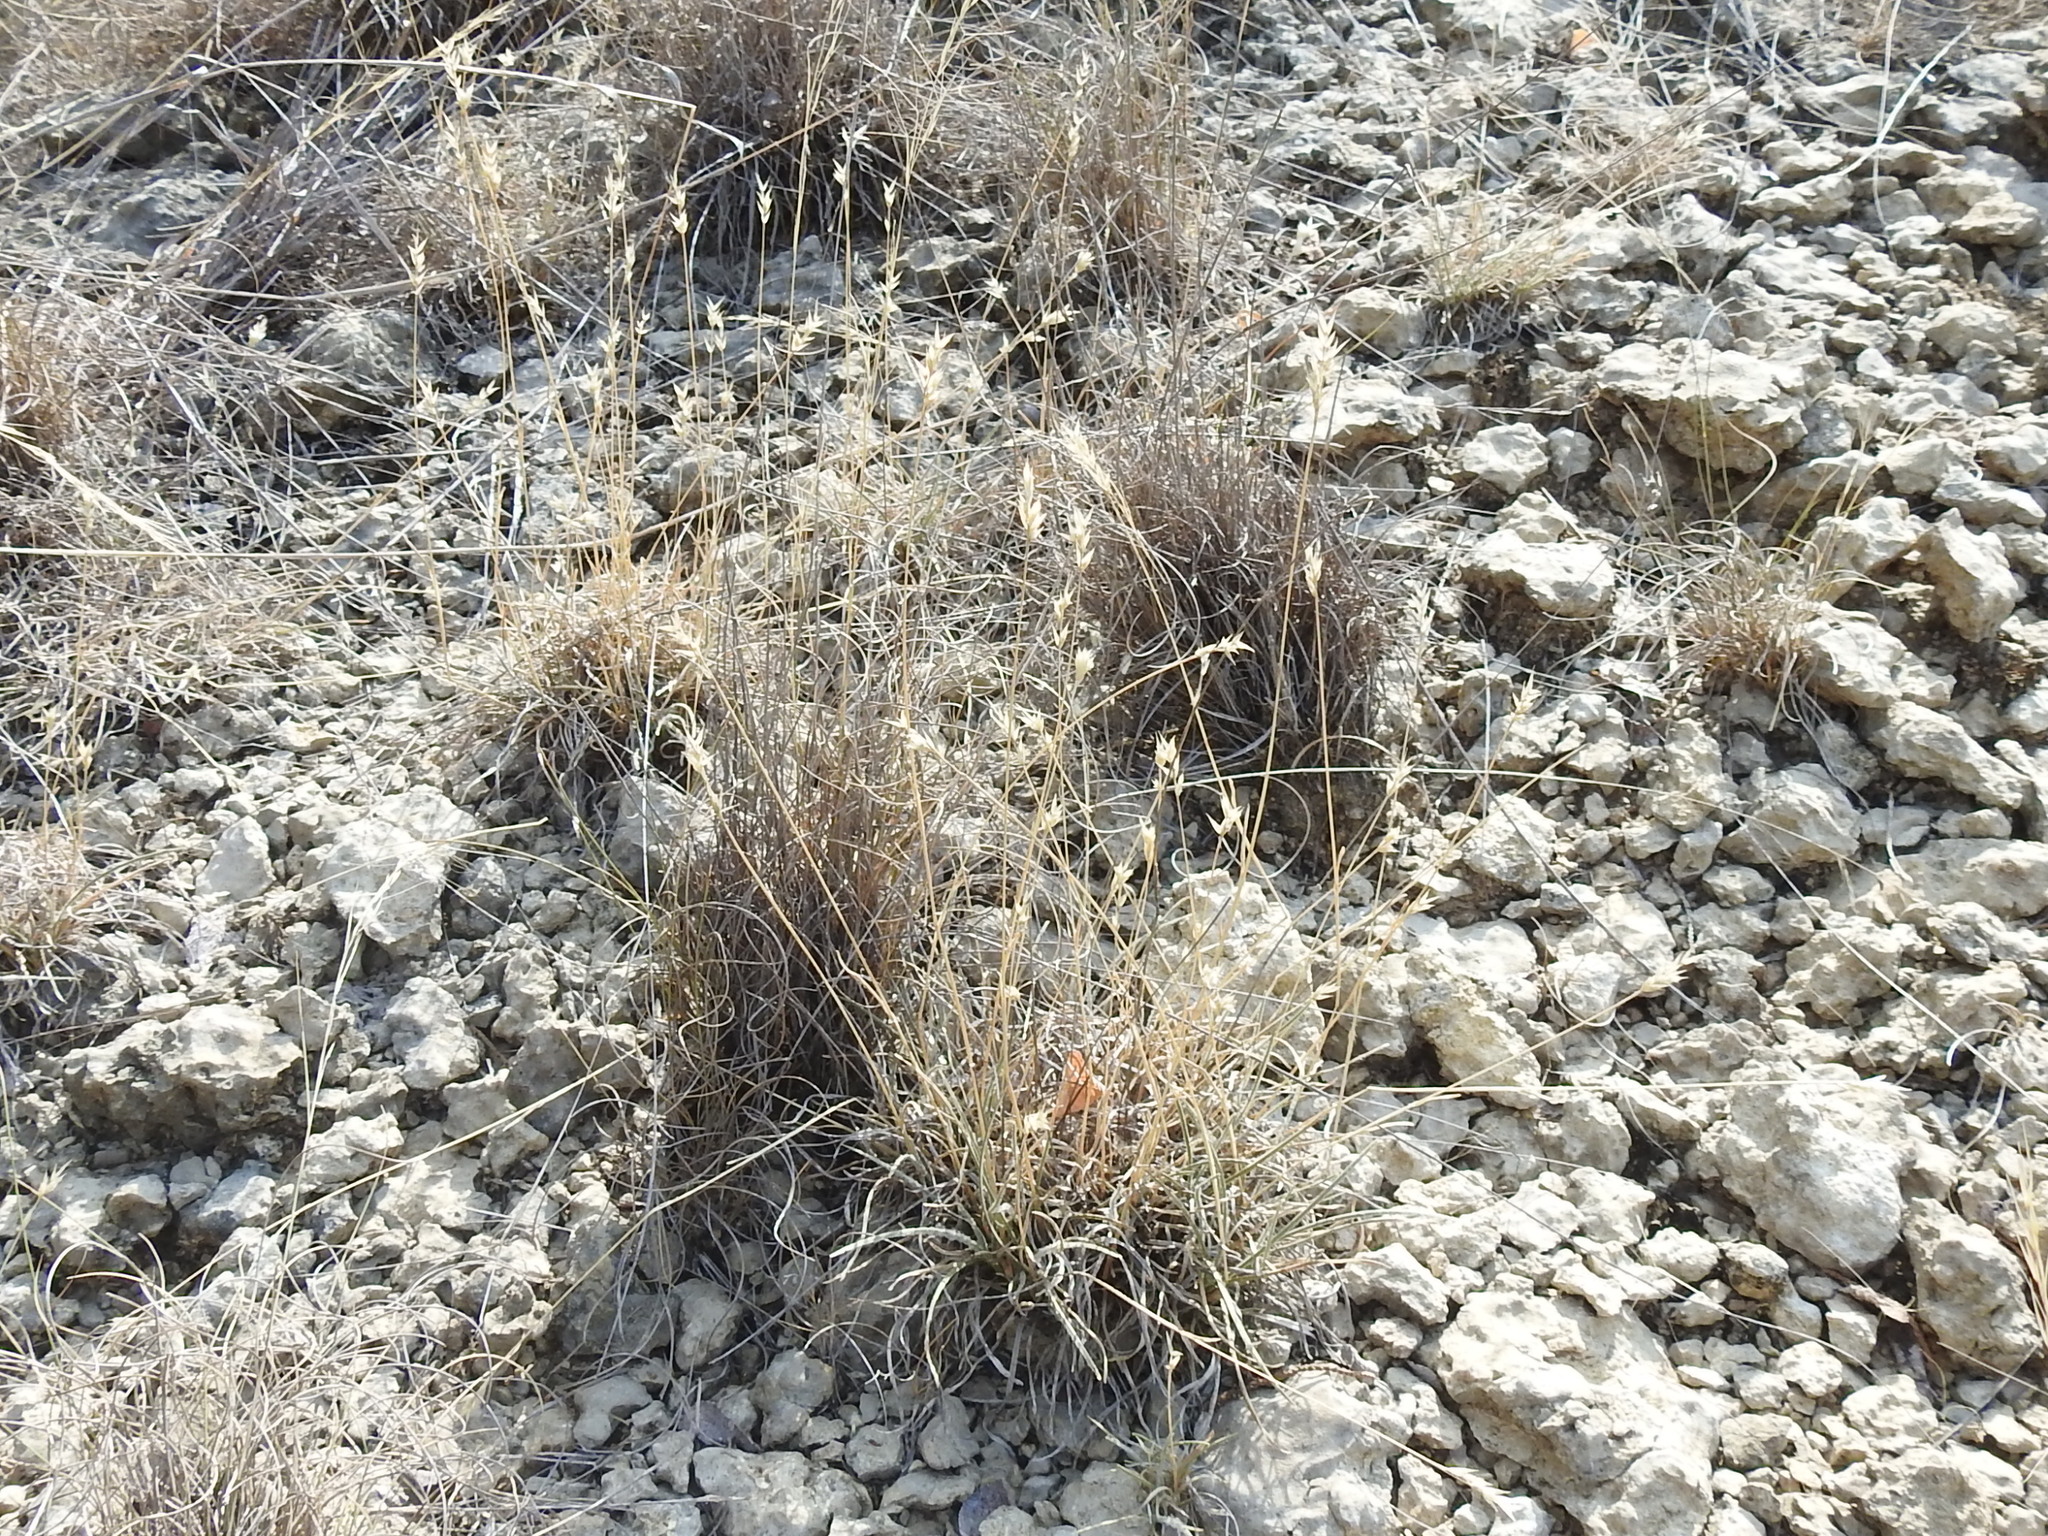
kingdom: Plantae
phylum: Tracheophyta
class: Liliopsida
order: Poales
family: Poaceae
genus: Erioneuron
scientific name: Erioneuron pilosum
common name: Hairy woolly grass
